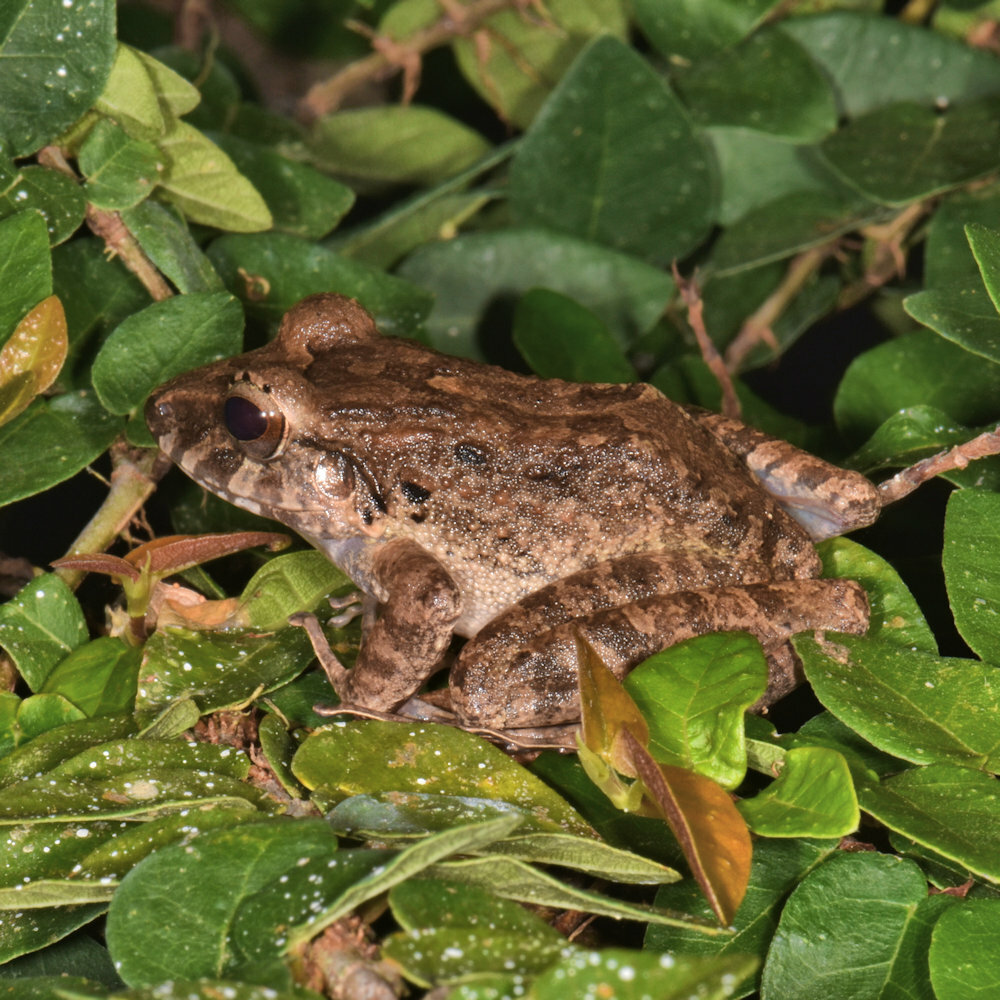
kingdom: Animalia
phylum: Chordata
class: Amphibia
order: Anura
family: Craugastoridae
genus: Craugastor
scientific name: Craugastor fitzingeri
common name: Fitzinger's robber frog
